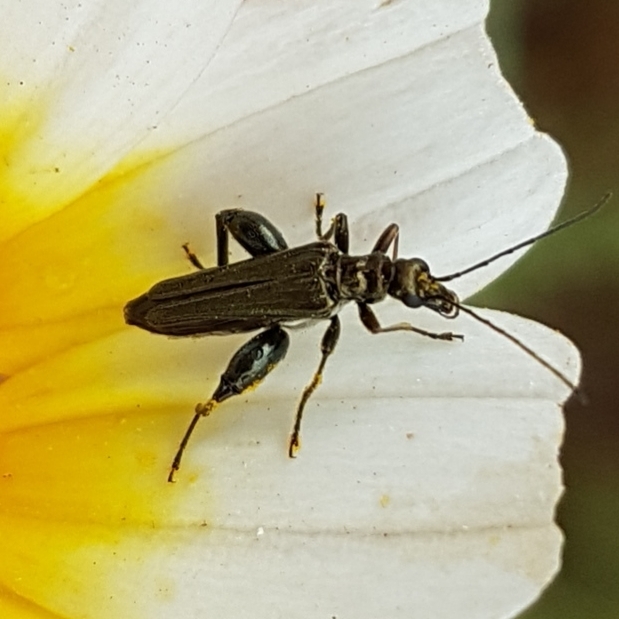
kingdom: Animalia
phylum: Arthropoda
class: Insecta
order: Coleoptera
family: Oedemeridae
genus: Oedemera
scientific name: Oedemera flavipes
